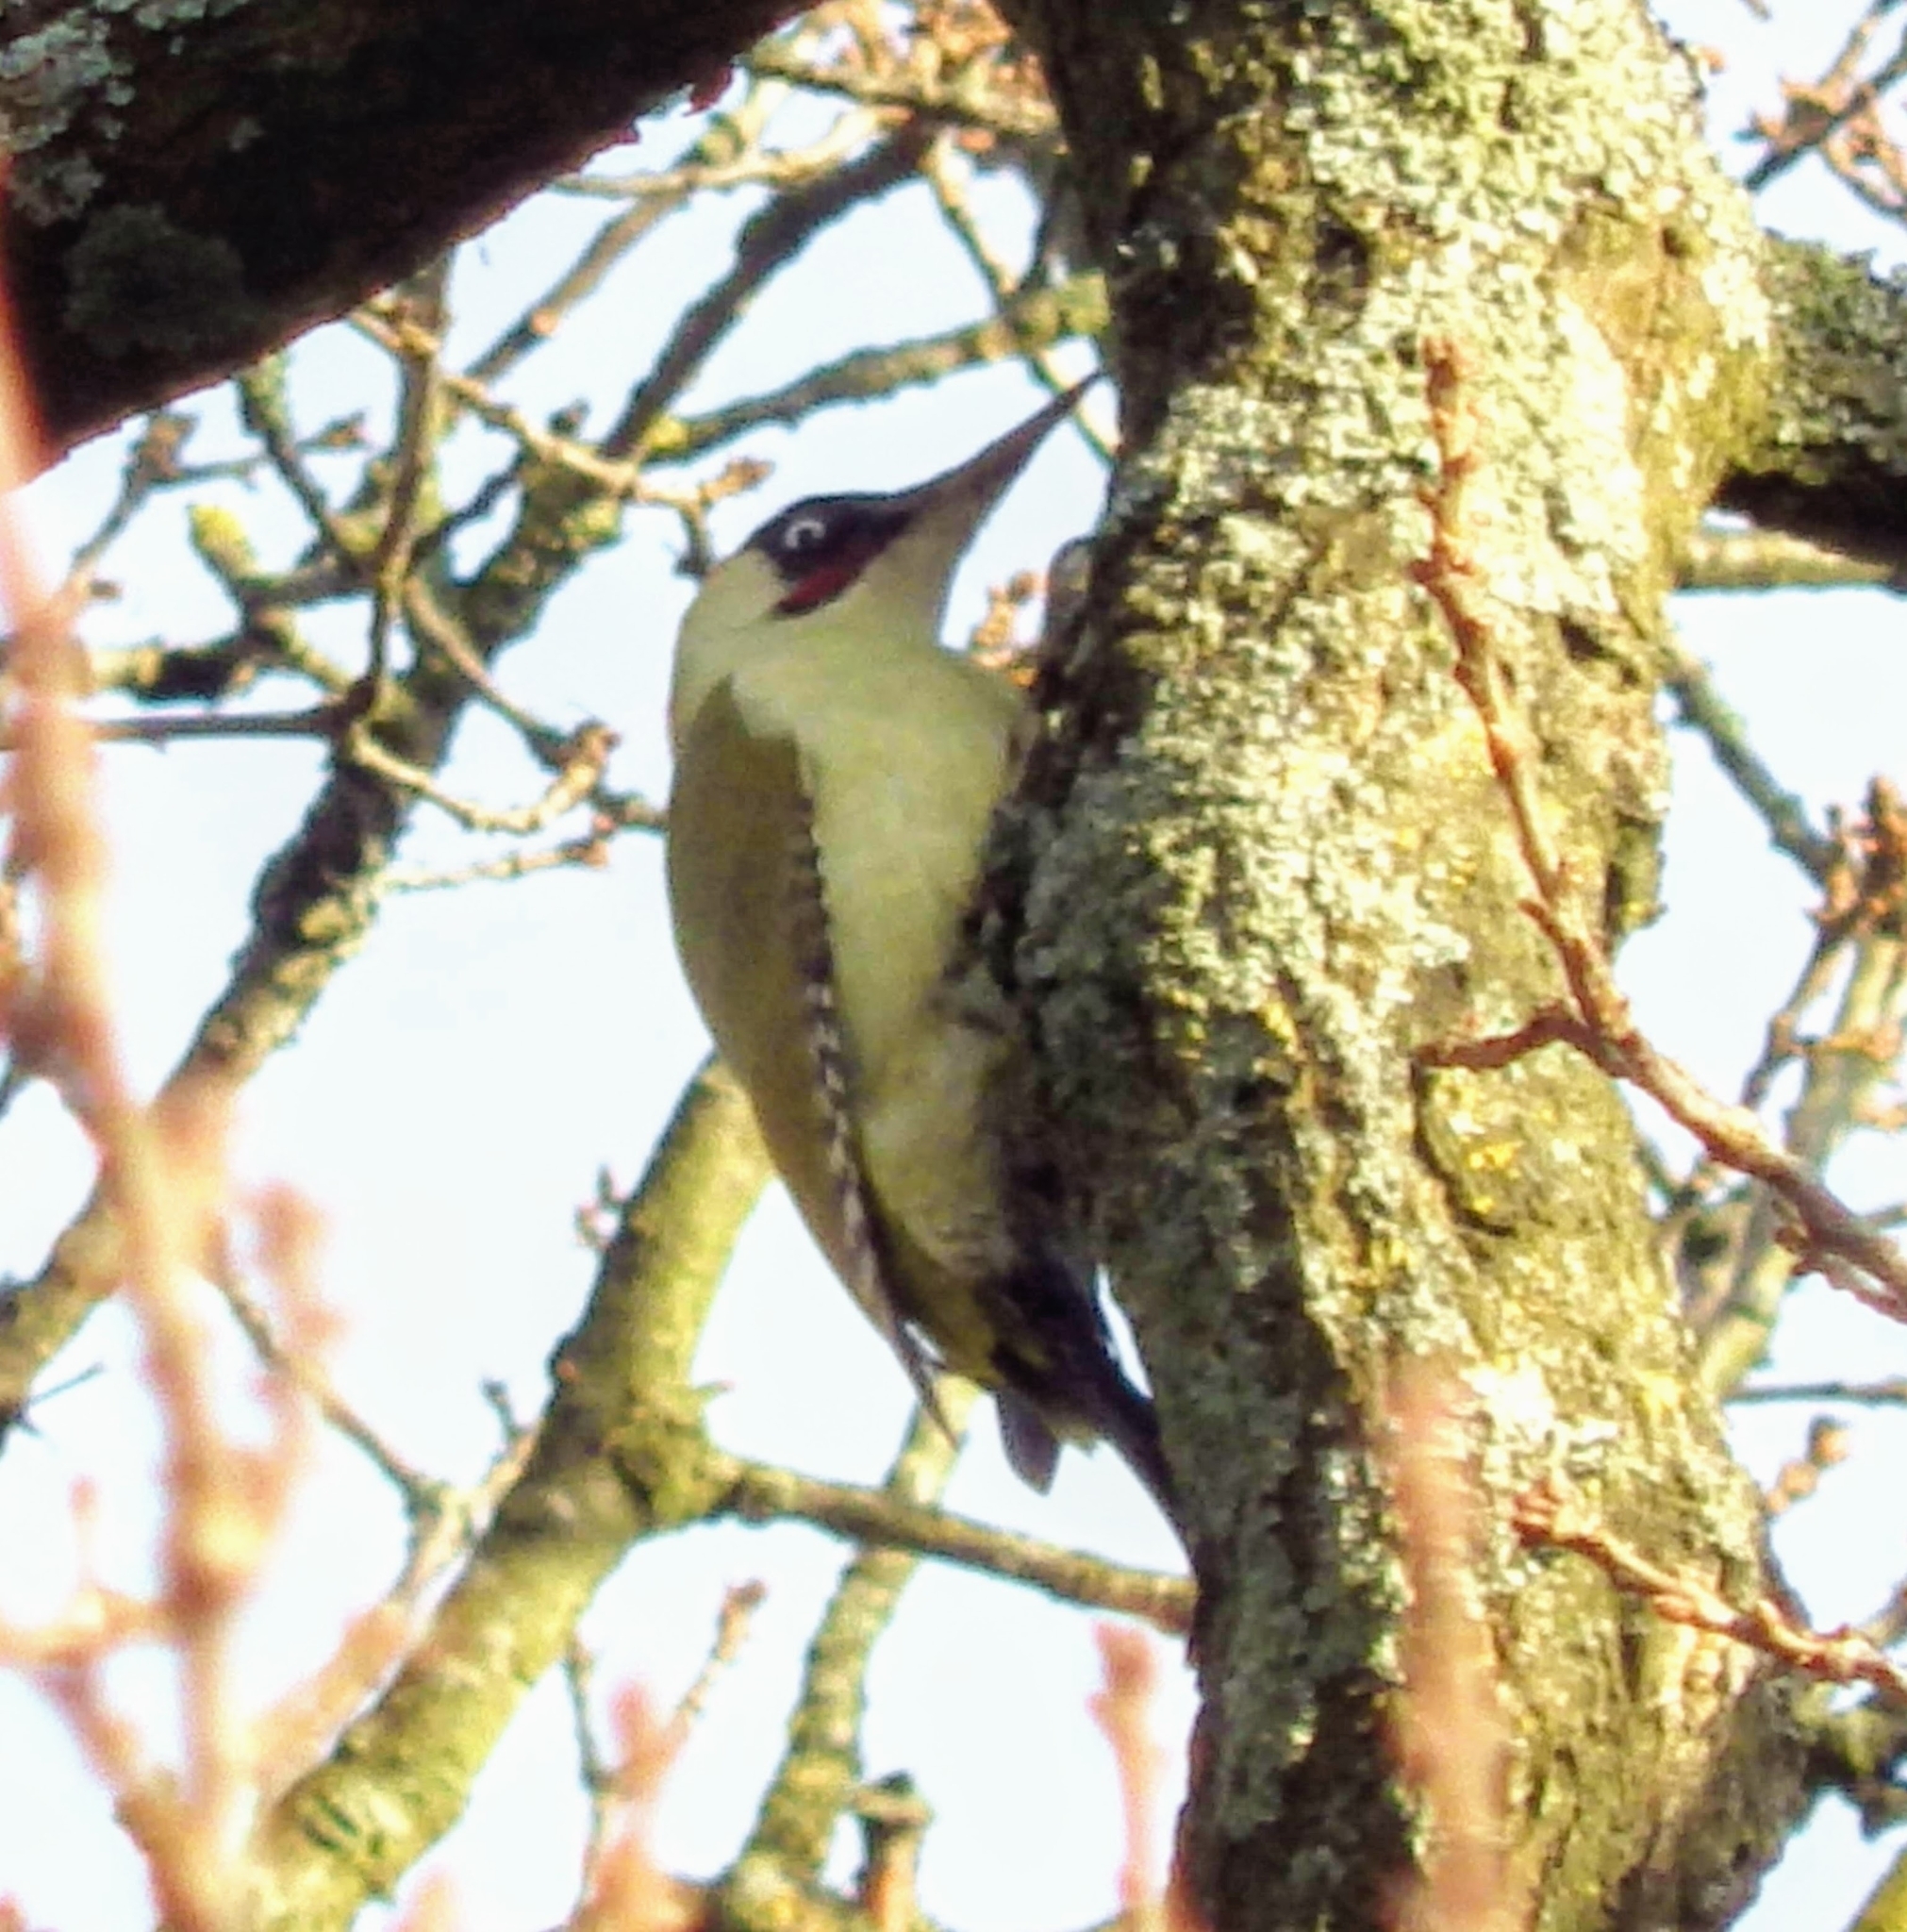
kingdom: Animalia
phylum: Chordata
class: Aves
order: Piciformes
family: Picidae
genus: Picus
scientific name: Picus viridis
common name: European green woodpecker
